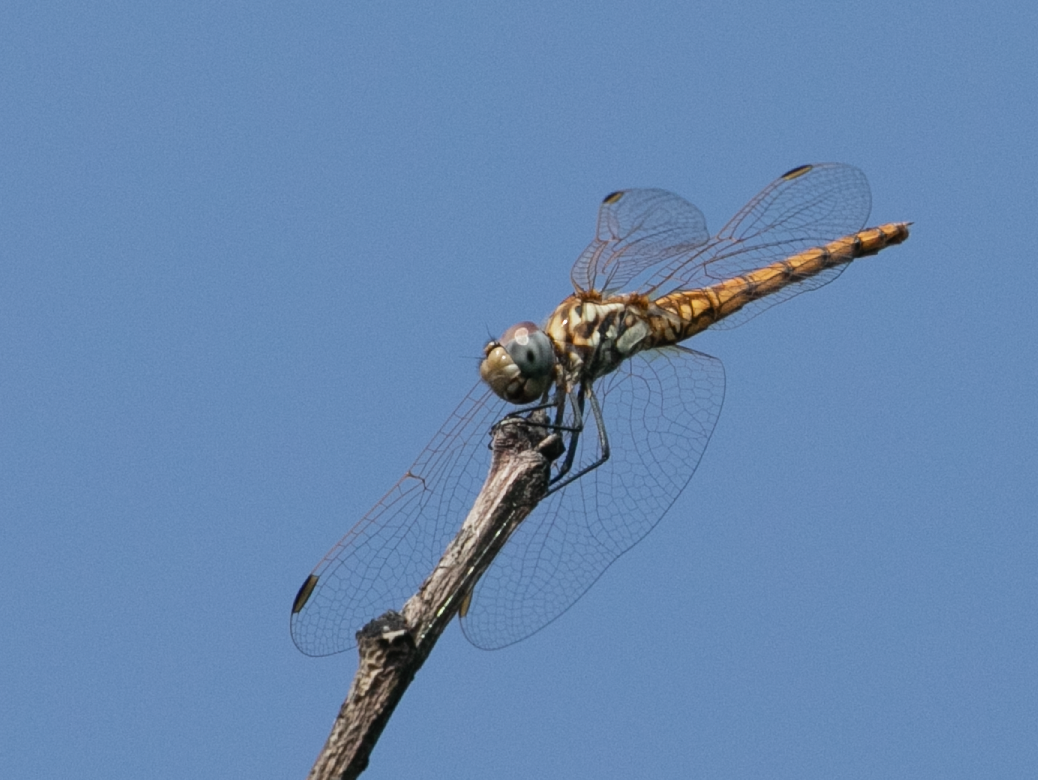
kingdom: Animalia
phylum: Arthropoda
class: Insecta
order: Odonata
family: Libellulidae
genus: Trithemis
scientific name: Trithemis annulata
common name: Violet dropwing
